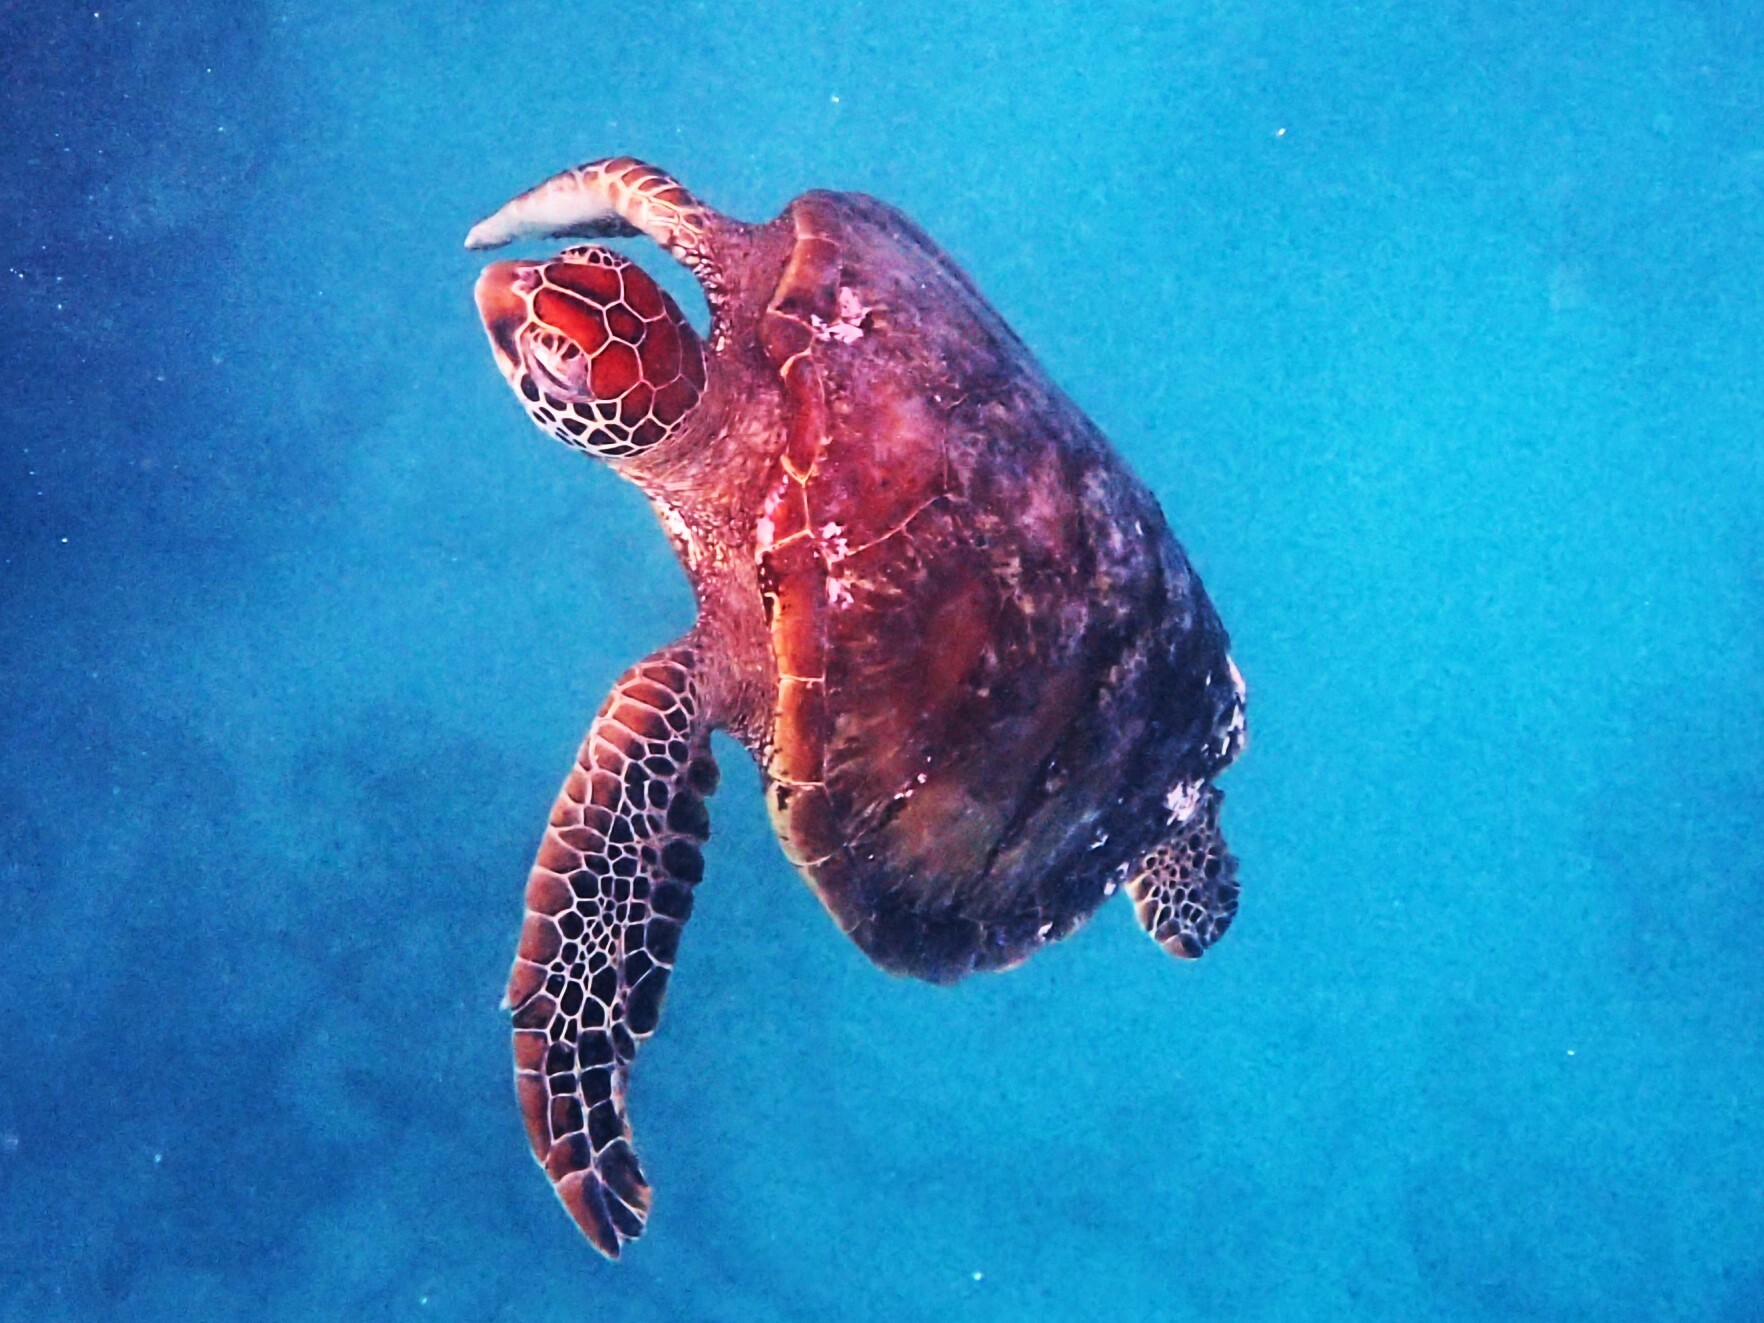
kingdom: Animalia
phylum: Chordata
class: Testudines
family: Cheloniidae
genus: Chelonia
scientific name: Chelonia mydas
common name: Green turtle
